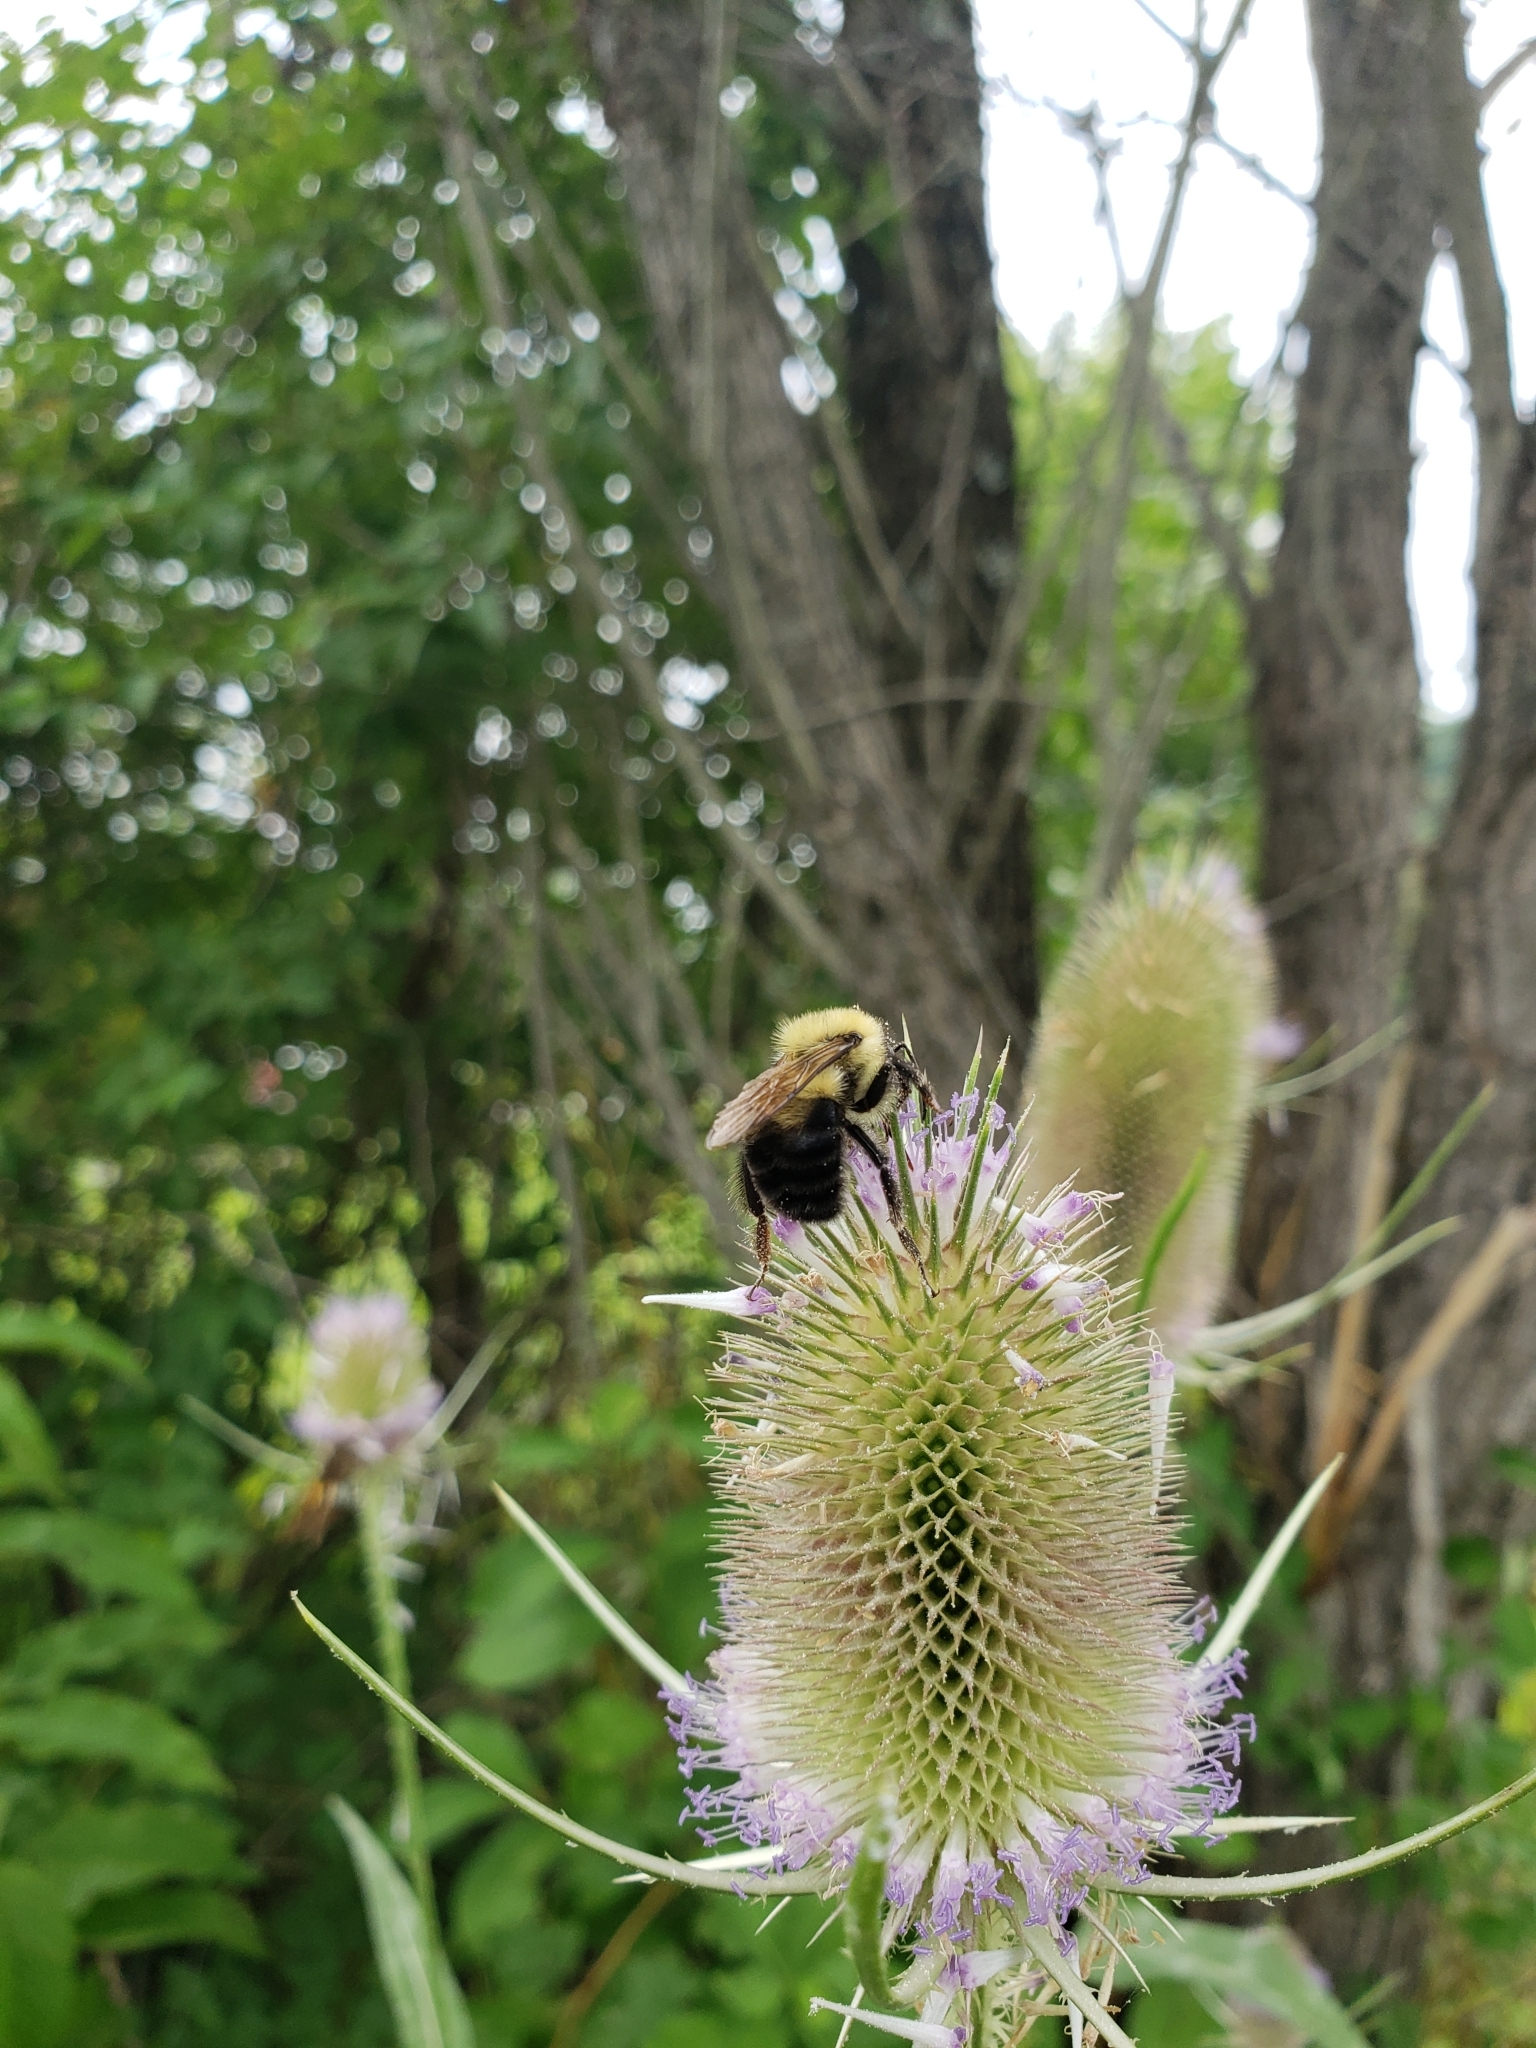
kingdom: Animalia
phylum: Arthropoda
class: Insecta
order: Hymenoptera
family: Apidae
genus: Bombus
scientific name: Bombus bimaculatus
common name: Two-spotted bumble bee
